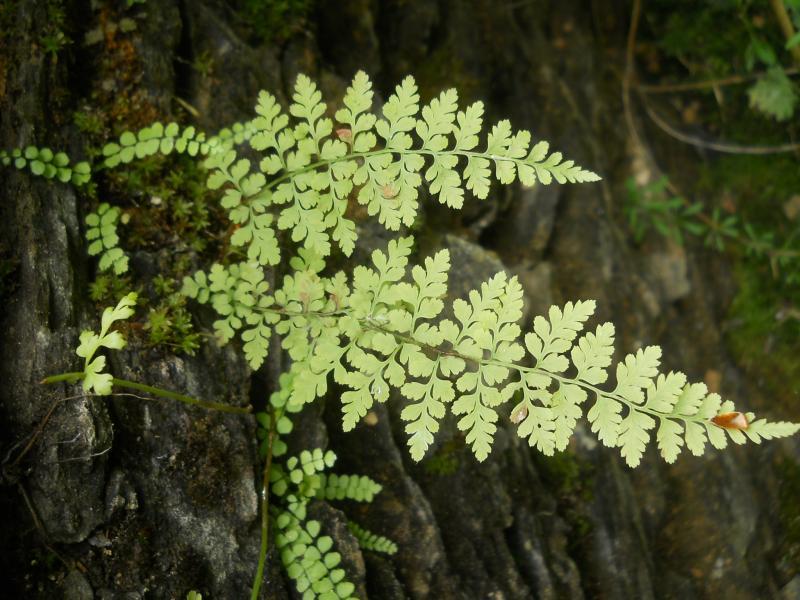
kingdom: Plantae
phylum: Tracheophyta
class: Polypodiopsida
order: Polypodiales
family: Cystopteridaceae
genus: Cystopteris
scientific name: Cystopteris fragilis
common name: Brittle bladder fern
